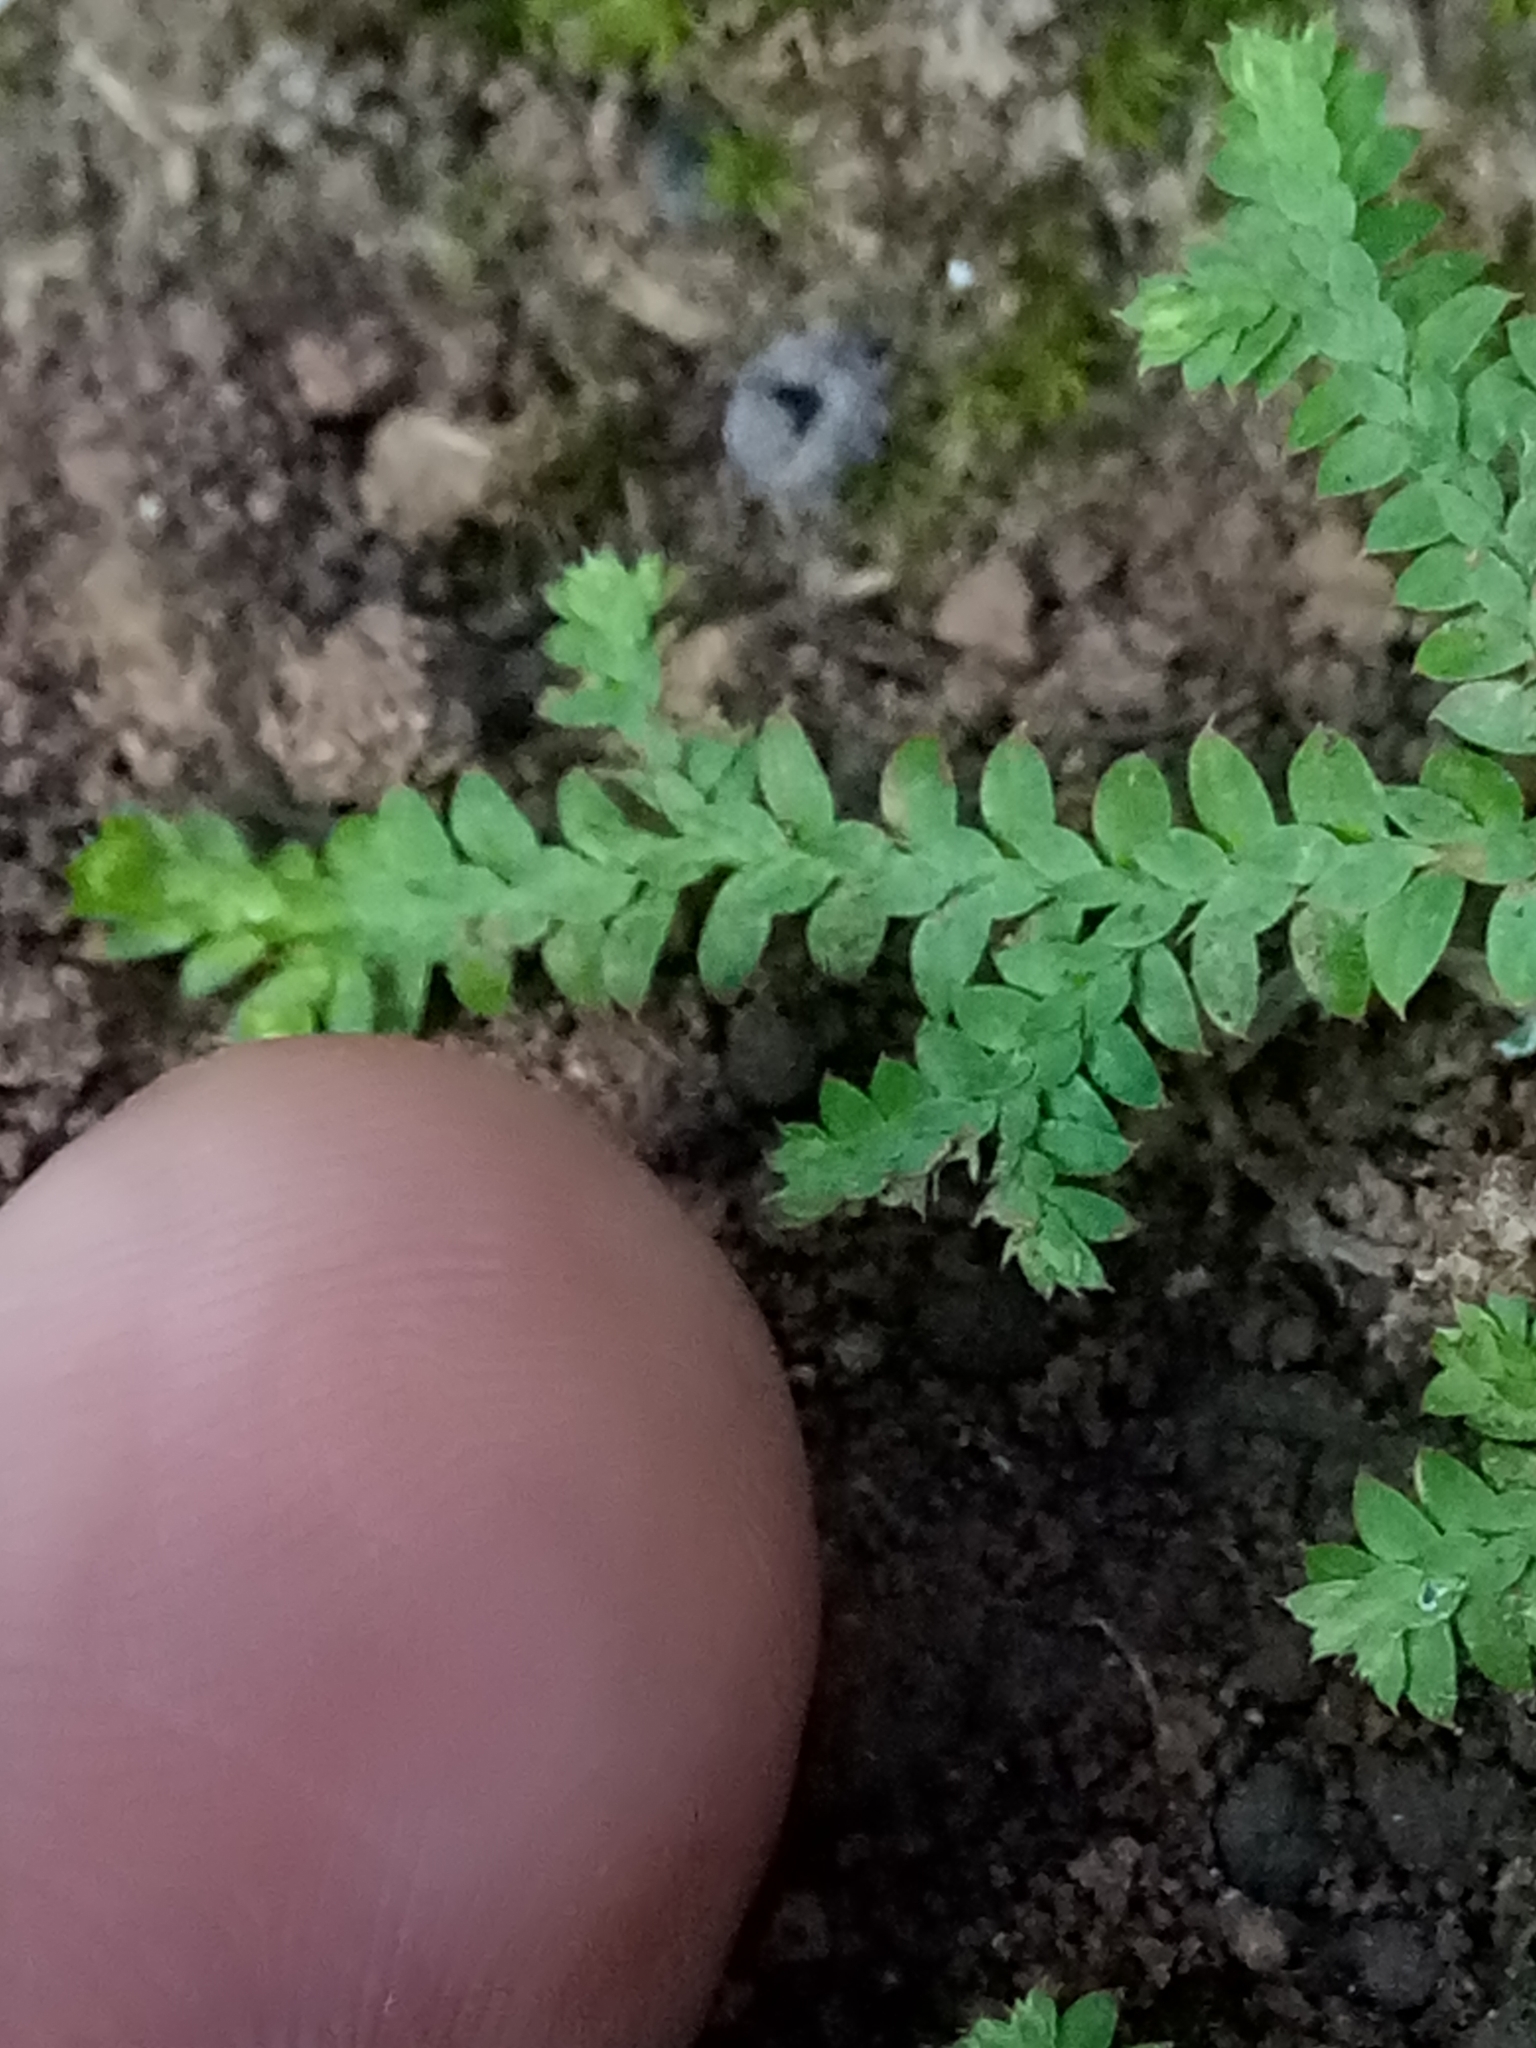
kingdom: Plantae
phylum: Tracheophyta
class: Lycopodiopsida
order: Selaginellales
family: Selaginellaceae
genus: Selaginella
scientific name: Selaginella denticulata
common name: Toothed-leaved clubmoss
